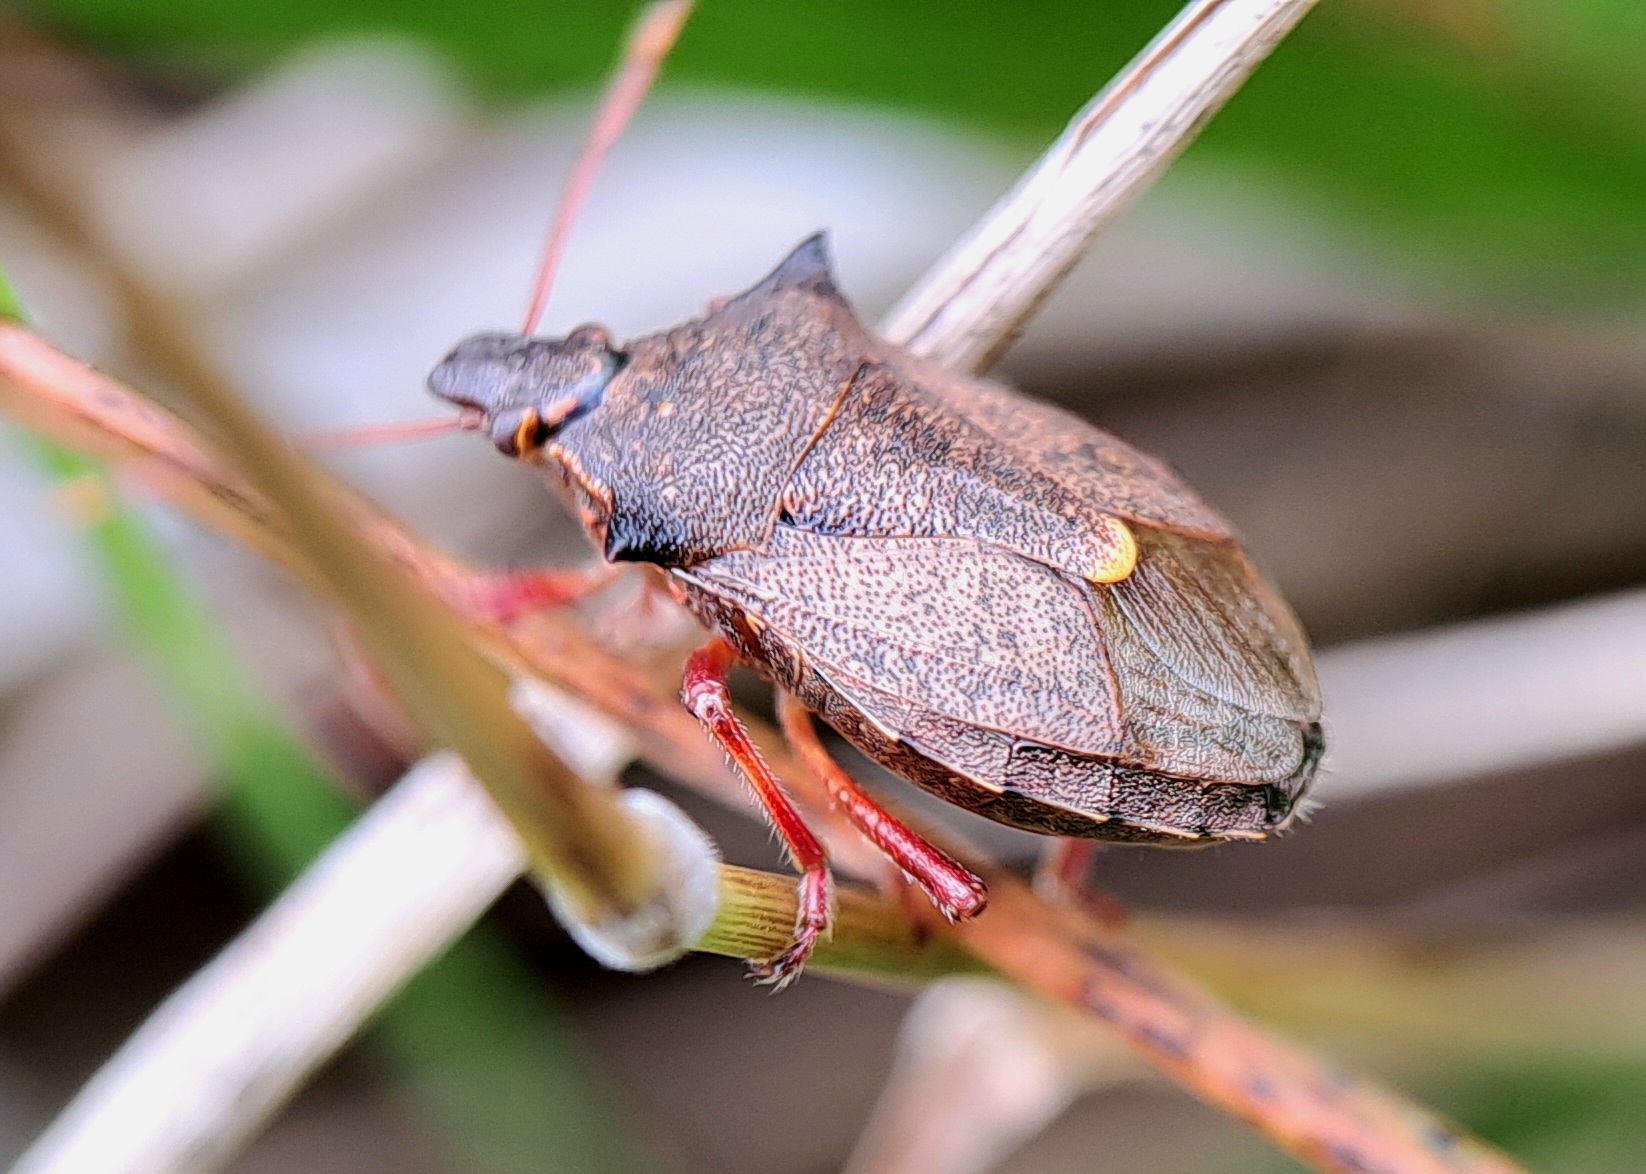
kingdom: Animalia
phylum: Arthropoda
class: Insecta
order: Hemiptera
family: Pentatomidae
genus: Picromerus
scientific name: Picromerus bidens
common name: Spiked shieldbug
